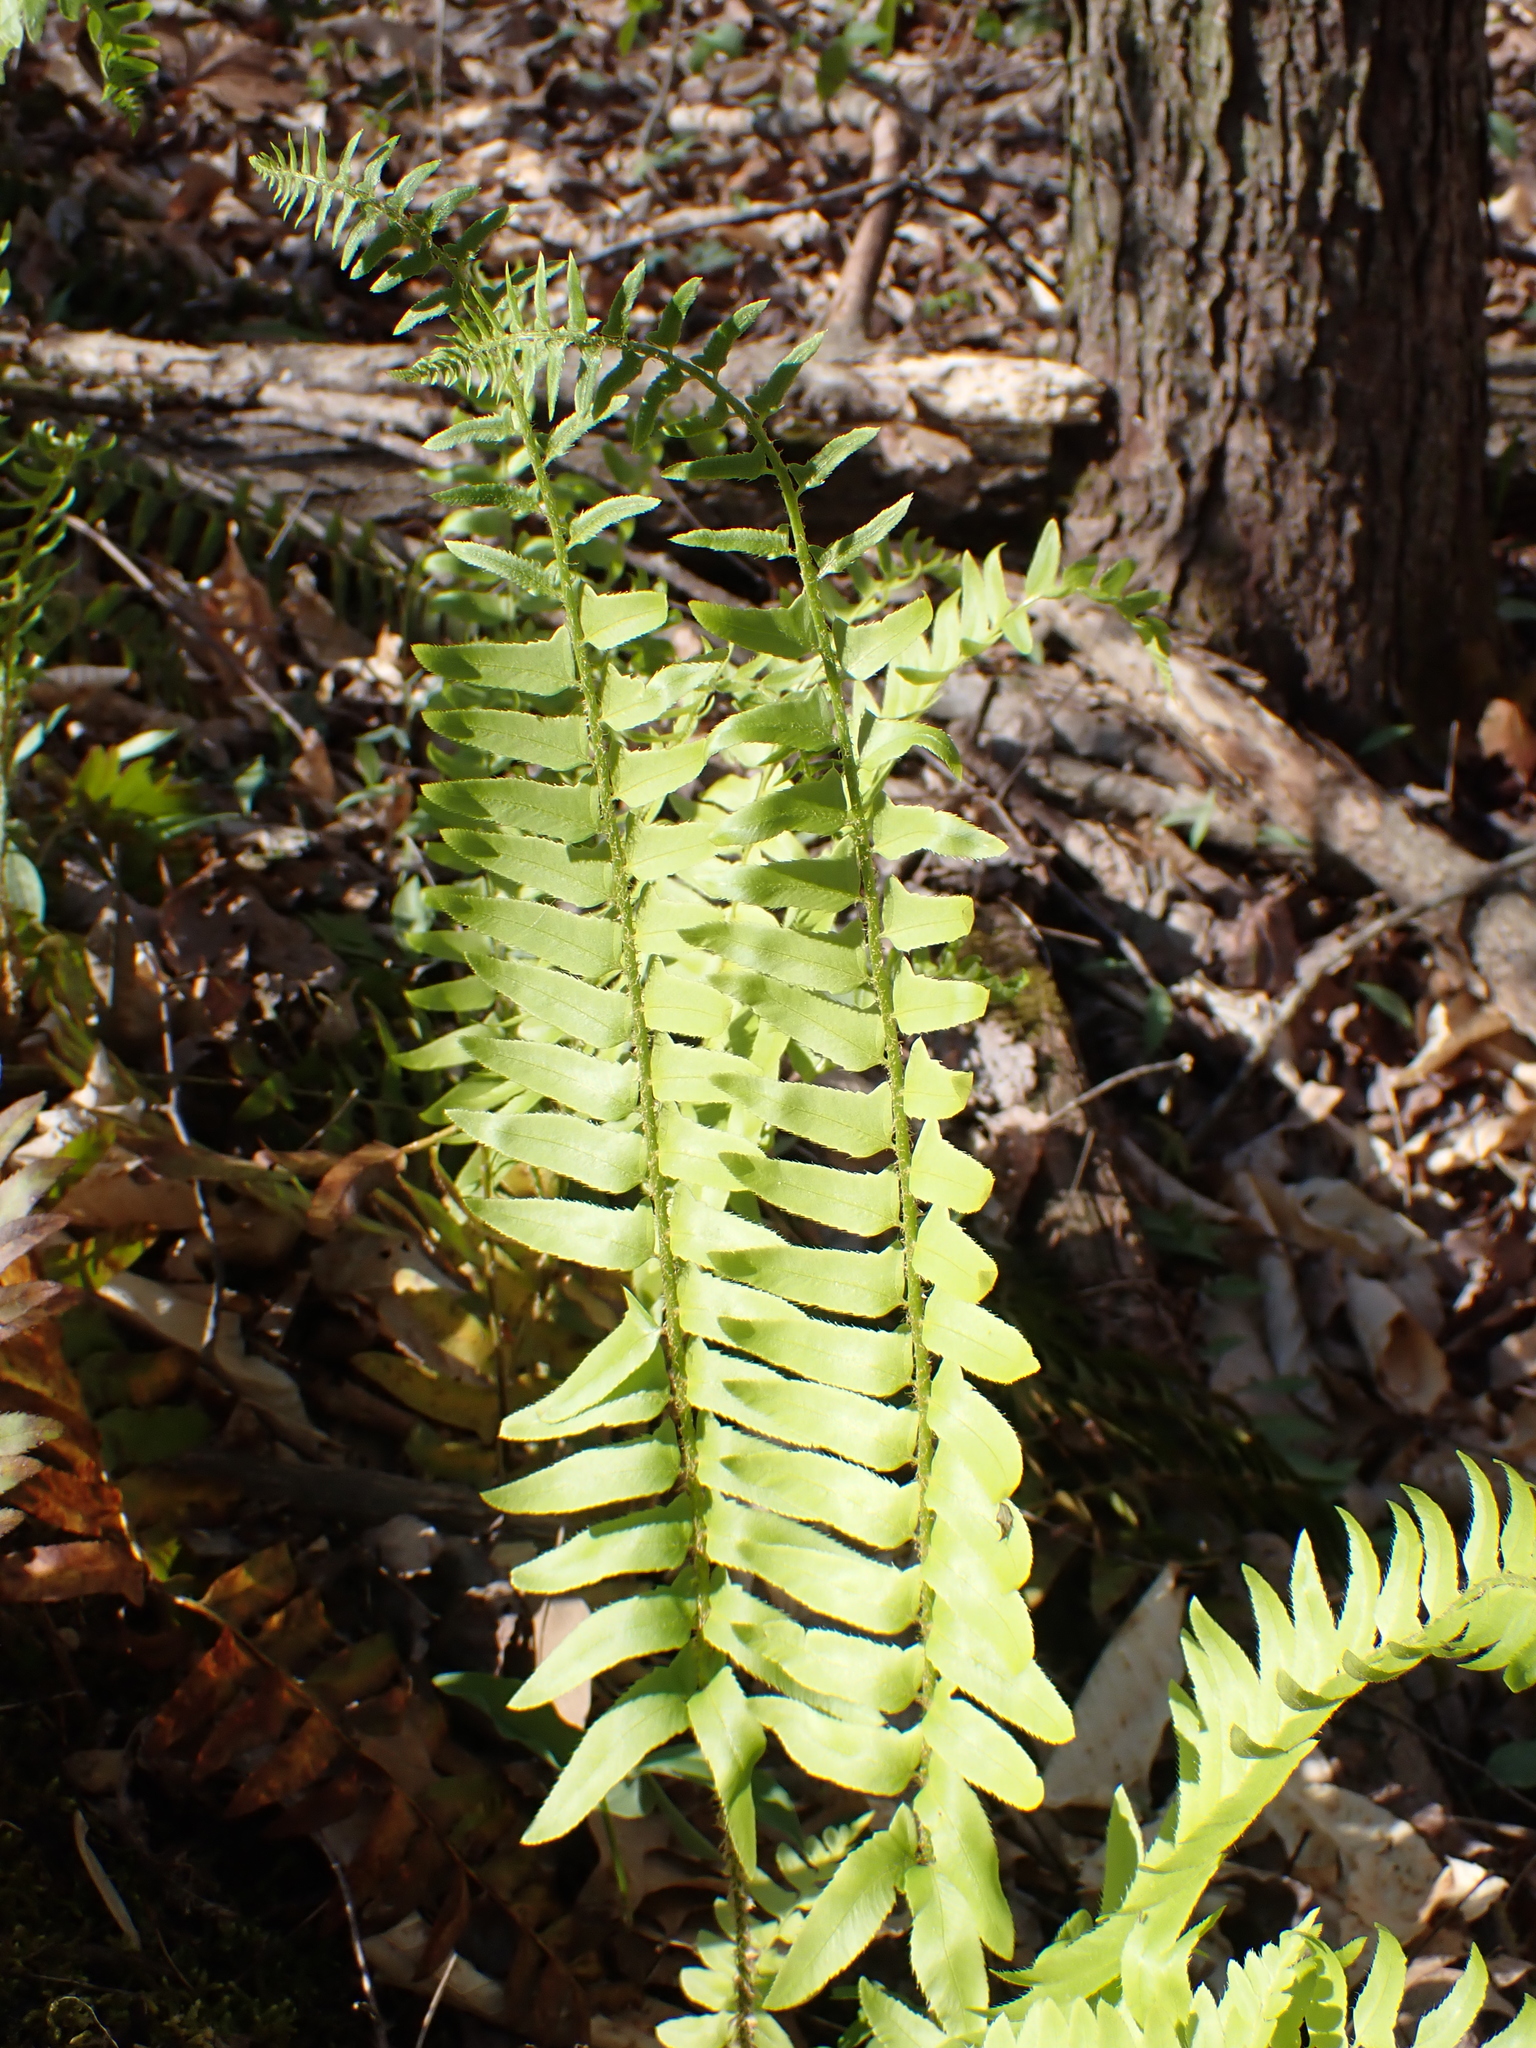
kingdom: Plantae
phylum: Tracheophyta
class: Polypodiopsida
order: Polypodiales
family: Dryopteridaceae
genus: Polystichum
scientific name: Polystichum acrostichoides
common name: Christmas fern
